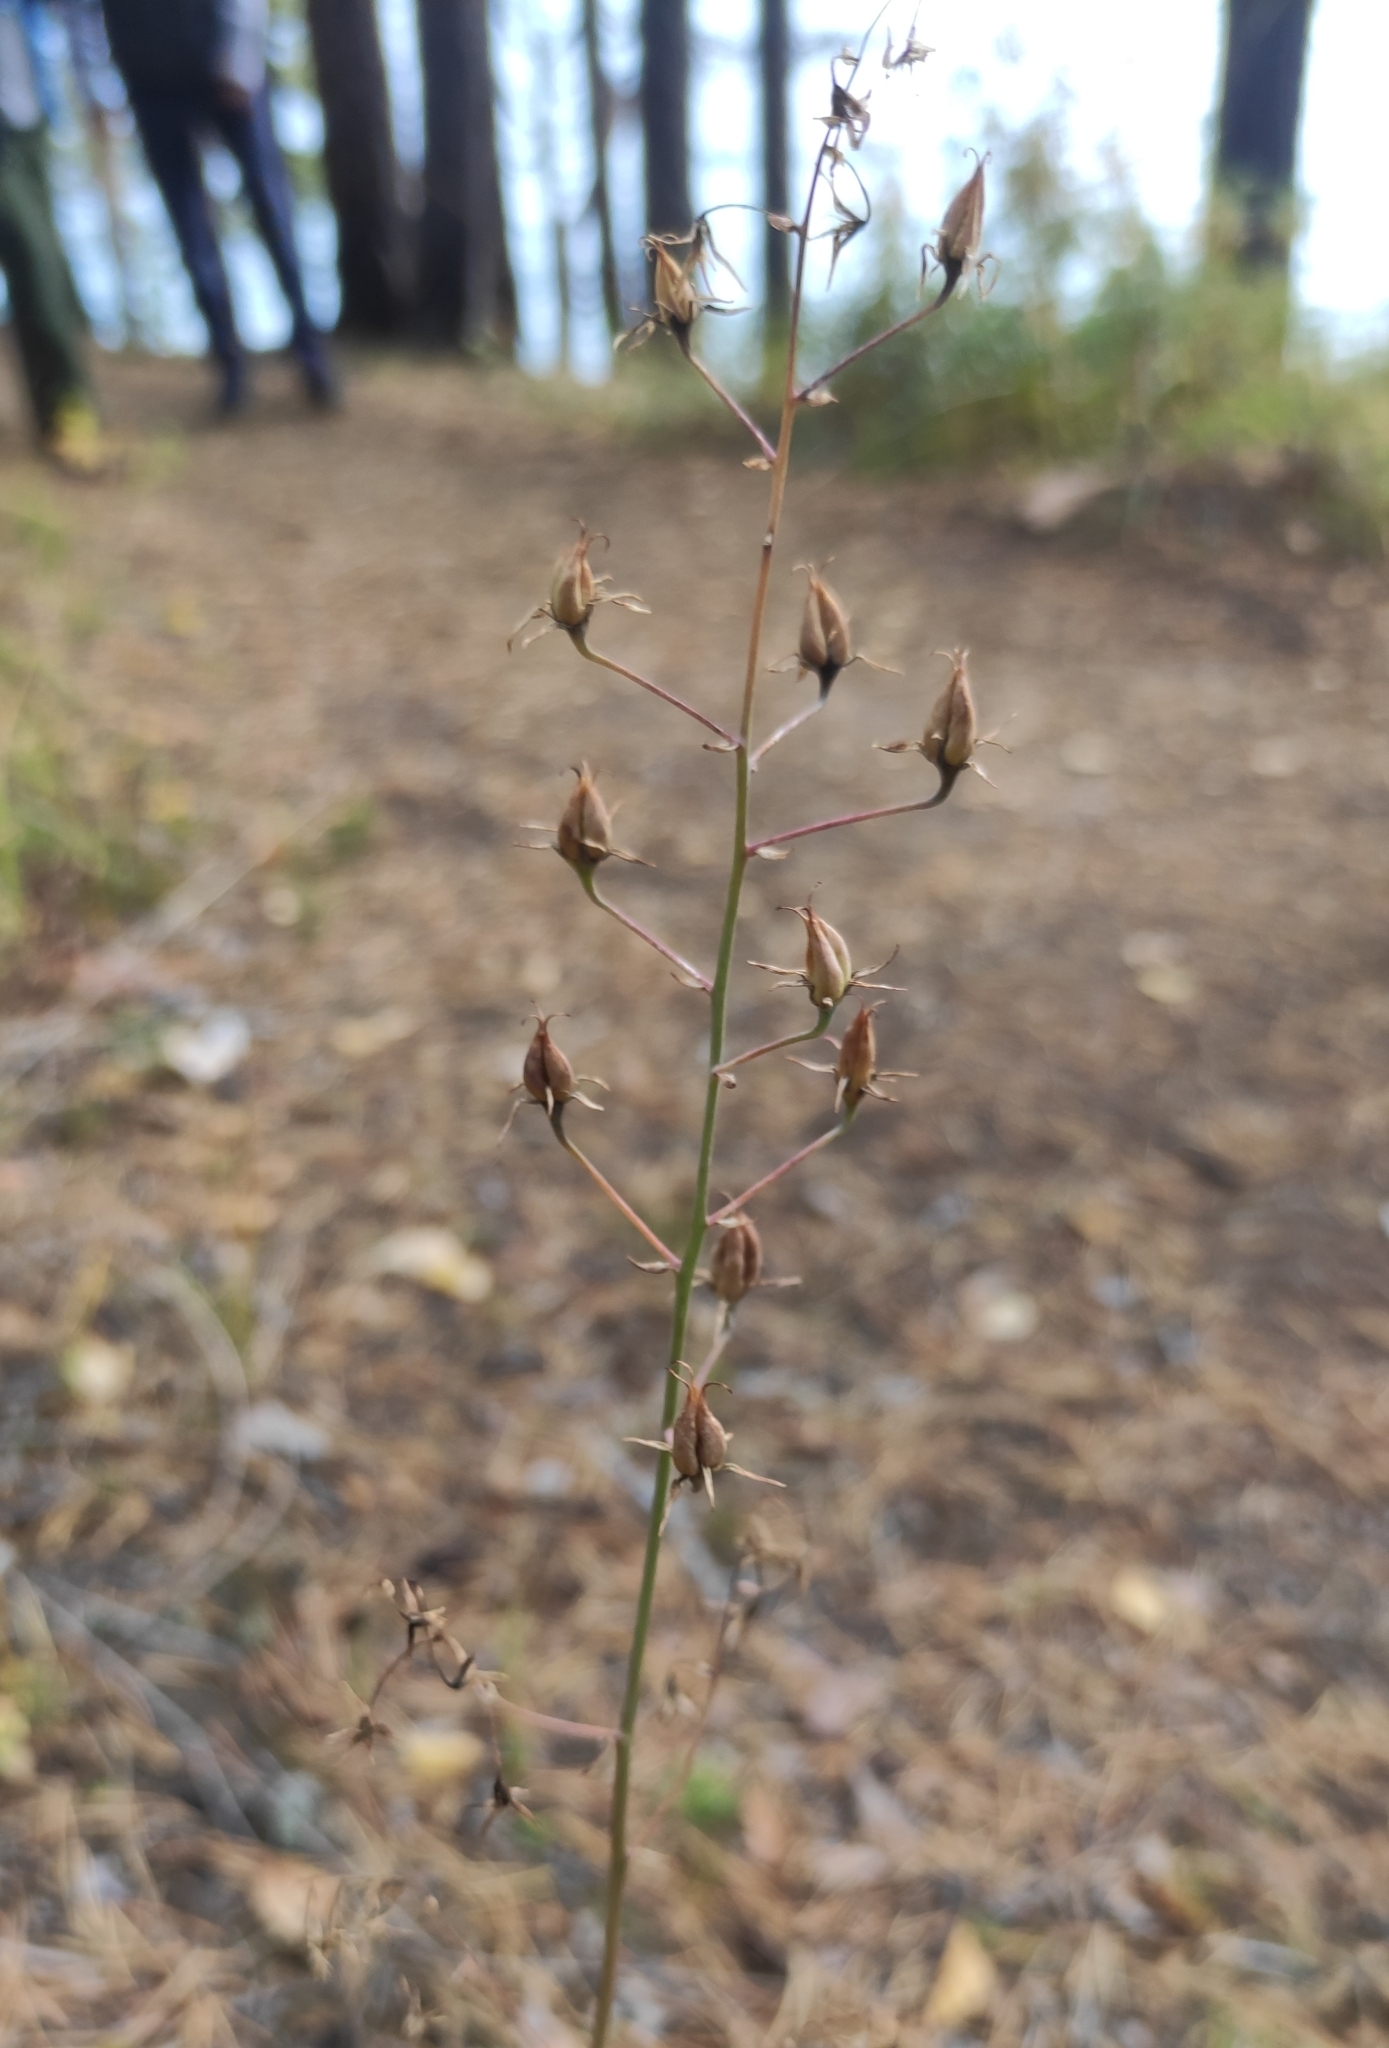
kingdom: Plantae
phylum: Tracheophyta
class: Liliopsida
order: Liliales
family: Melanthiaceae
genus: Anticlea
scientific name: Anticlea sibirica
